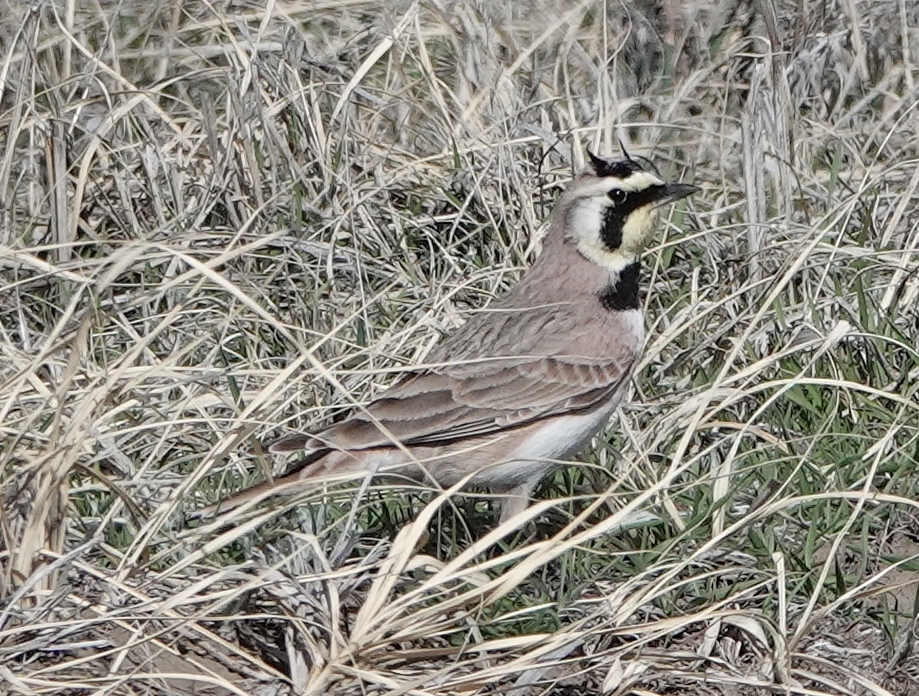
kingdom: Animalia
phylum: Chordata
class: Aves
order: Passeriformes
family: Alaudidae
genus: Eremophila
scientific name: Eremophila alpestris
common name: Horned lark
